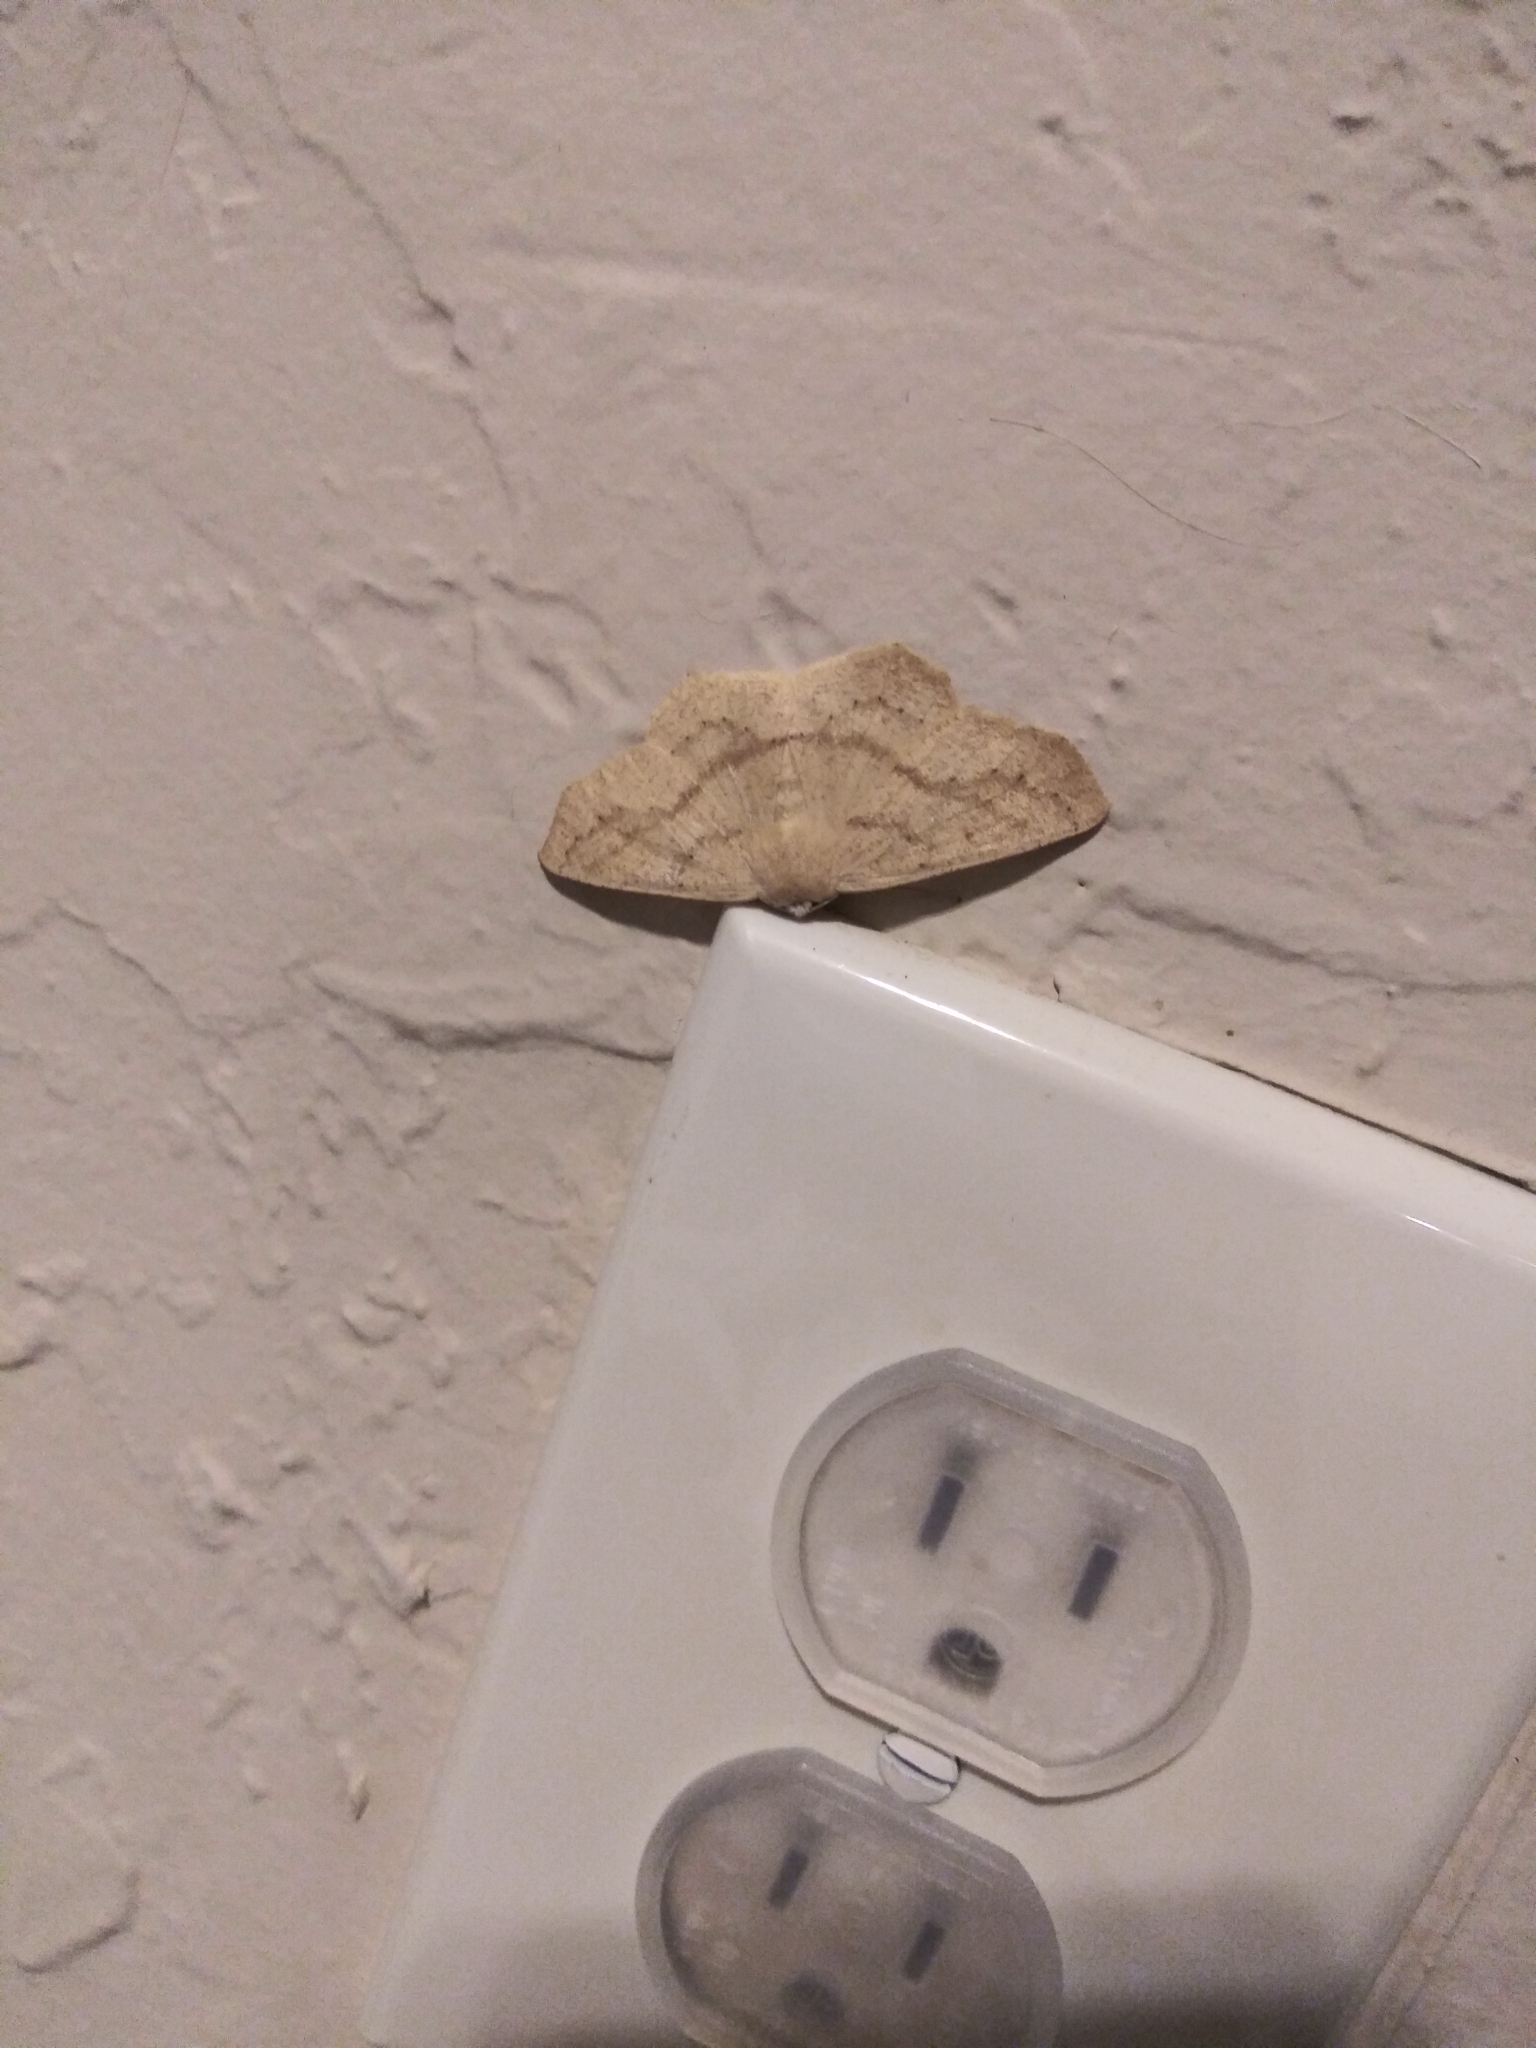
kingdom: Animalia
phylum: Arthropoda
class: Insecta
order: Lepidoptera
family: Geometridae
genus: Sabulodes
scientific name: Sabulodes aegrotata
